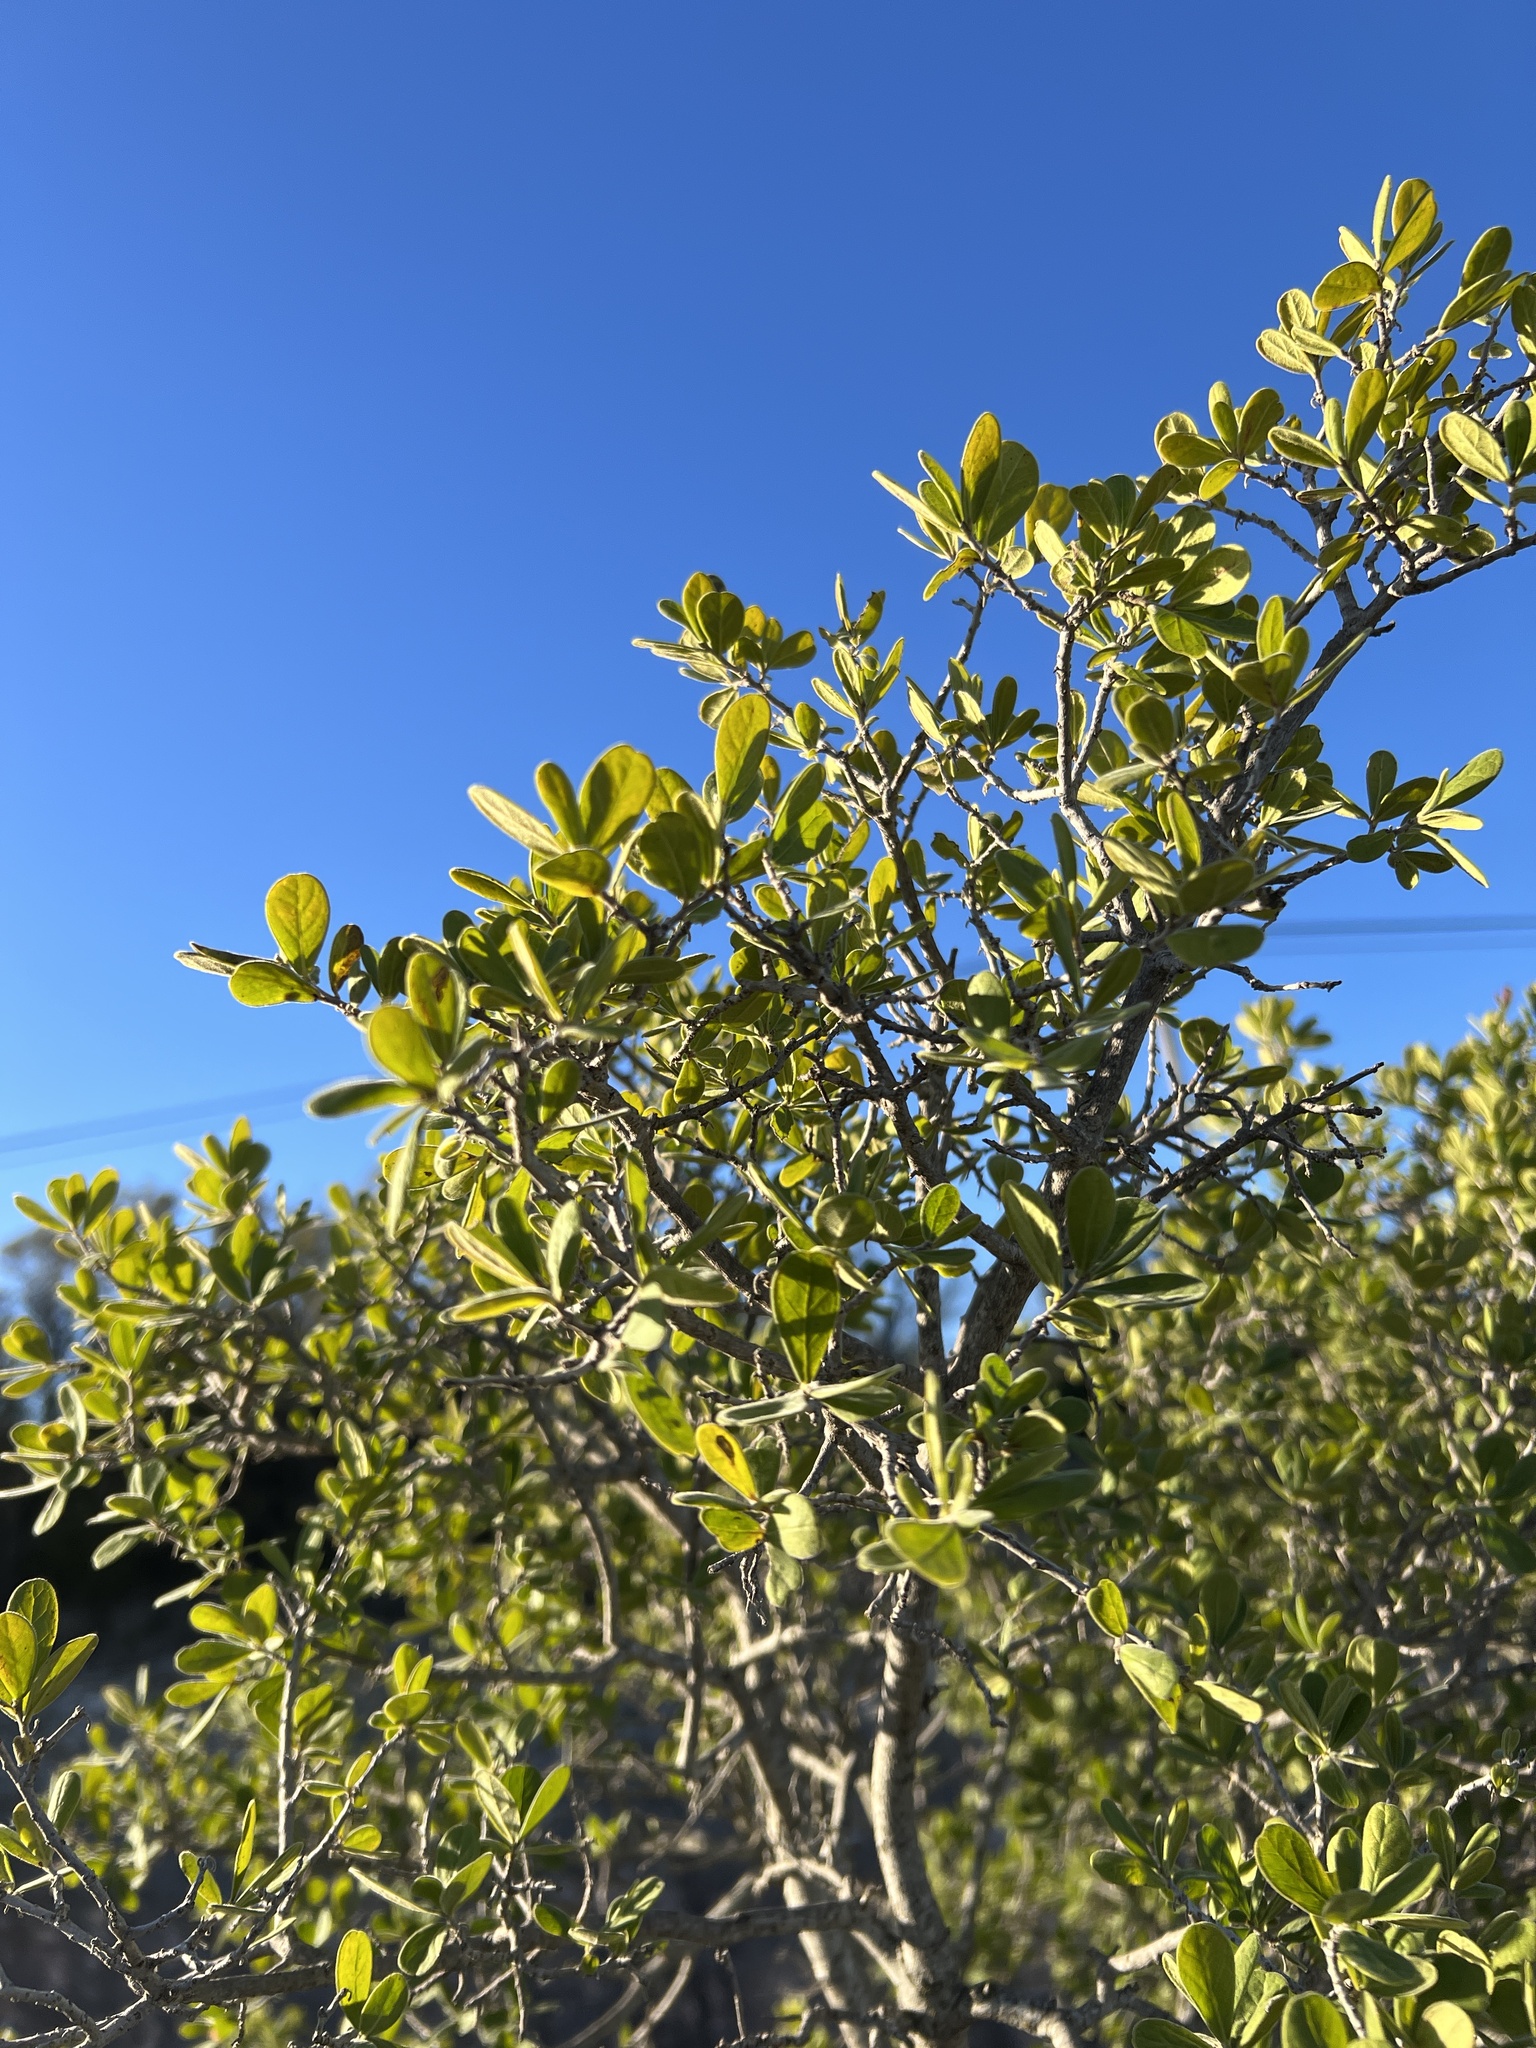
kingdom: Plantae
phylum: Tracheophyta
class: Magnoliopsida
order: Ericales
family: Ebenaceae
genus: Diospyros
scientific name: Diospyros texana
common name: Texas persimmon
